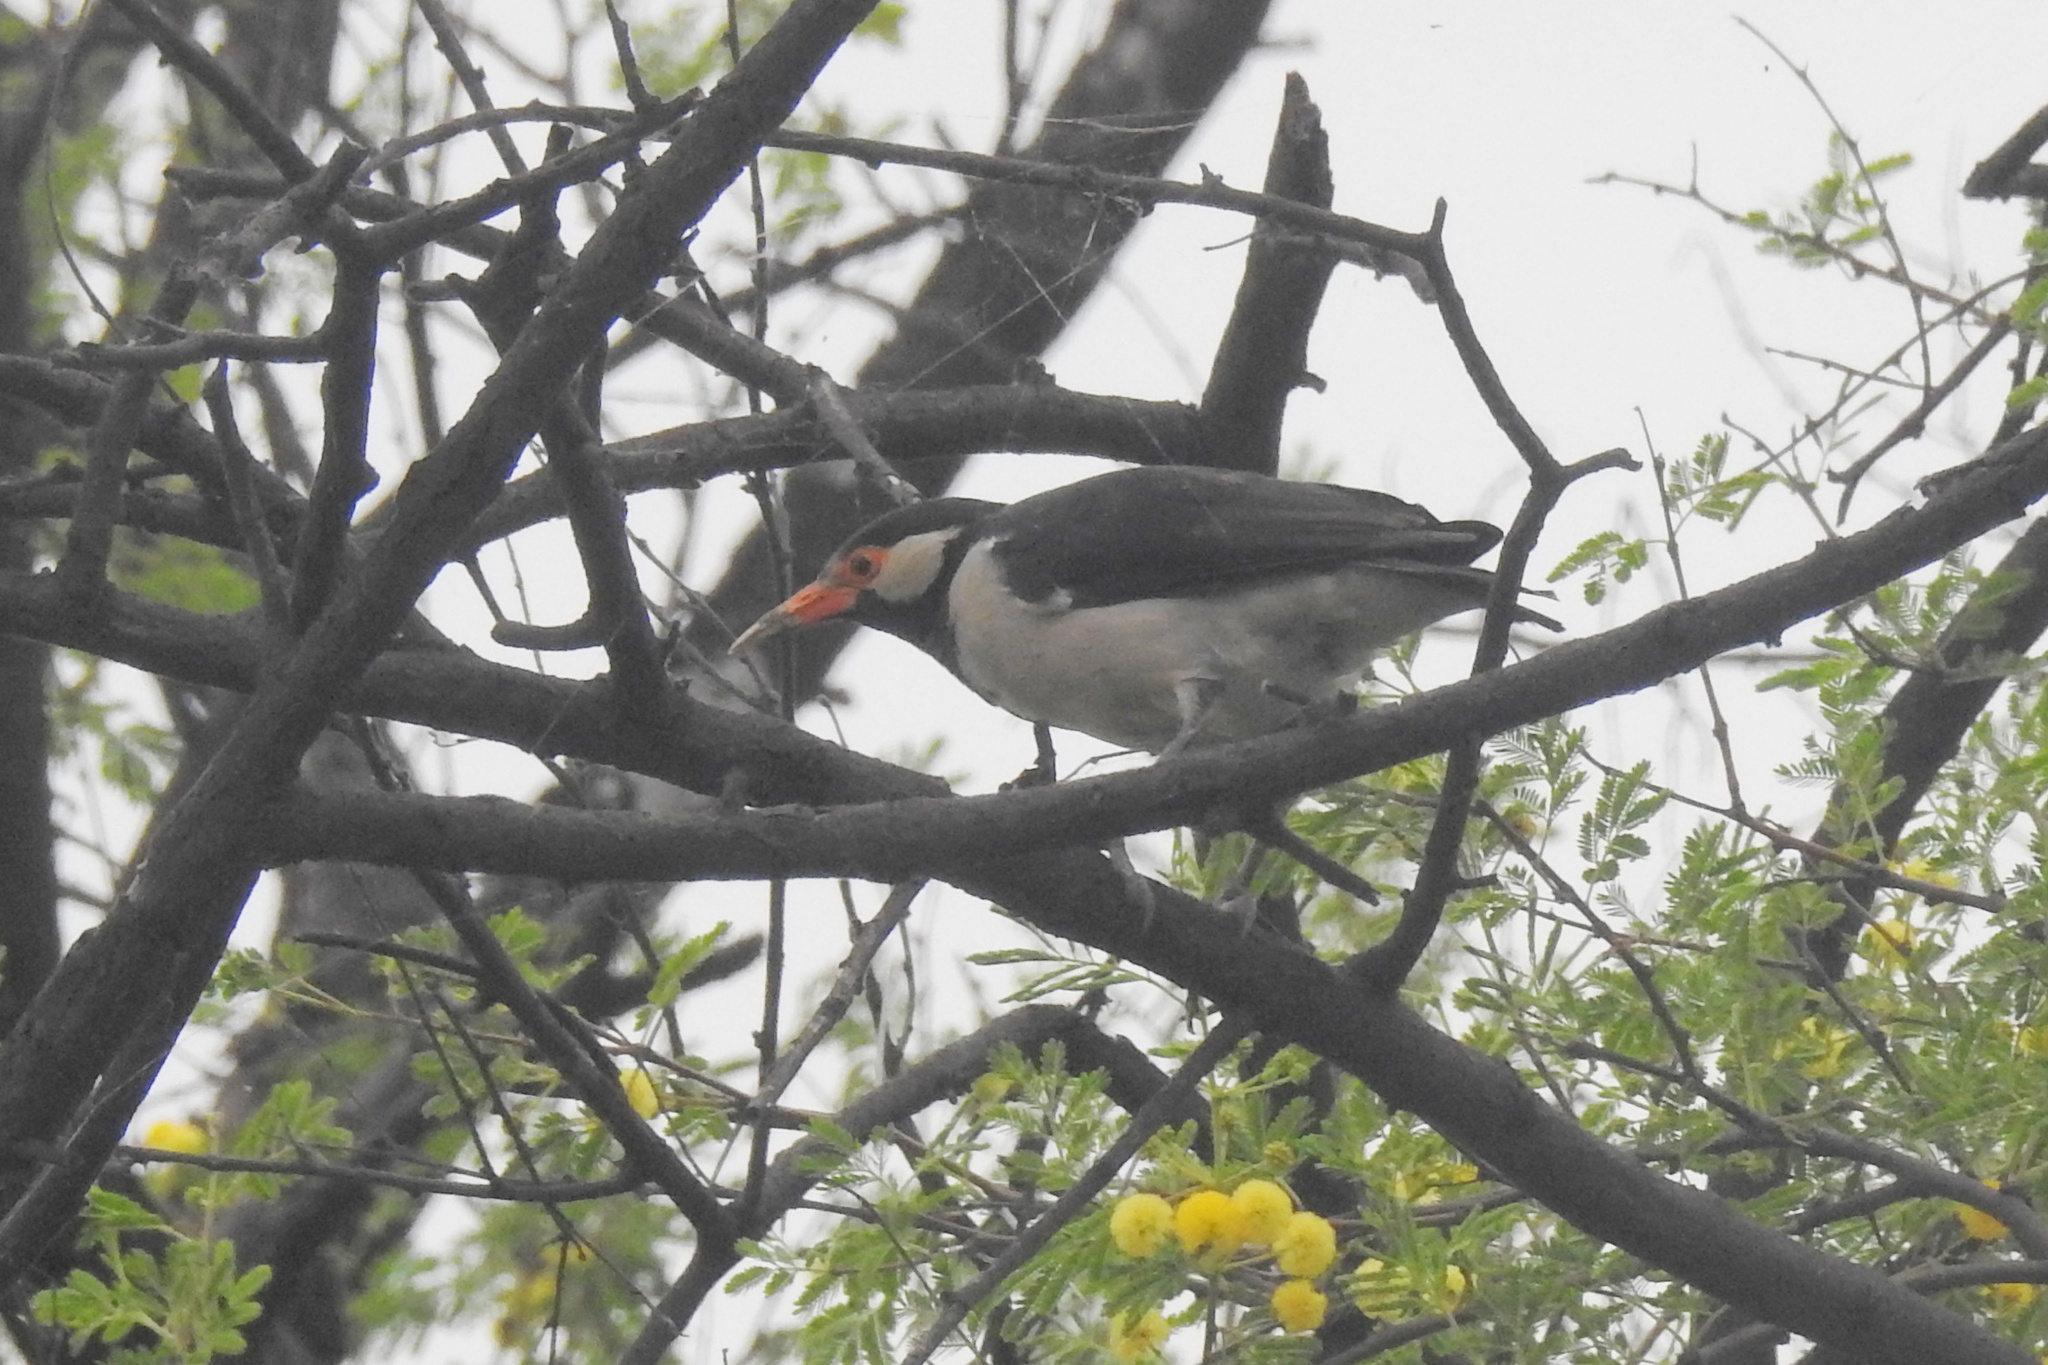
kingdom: Animalia
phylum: Chordata
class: Aves
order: Passeriformes
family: Sturnidae
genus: Gracupica
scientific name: Gracupica contra
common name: Pied myna
